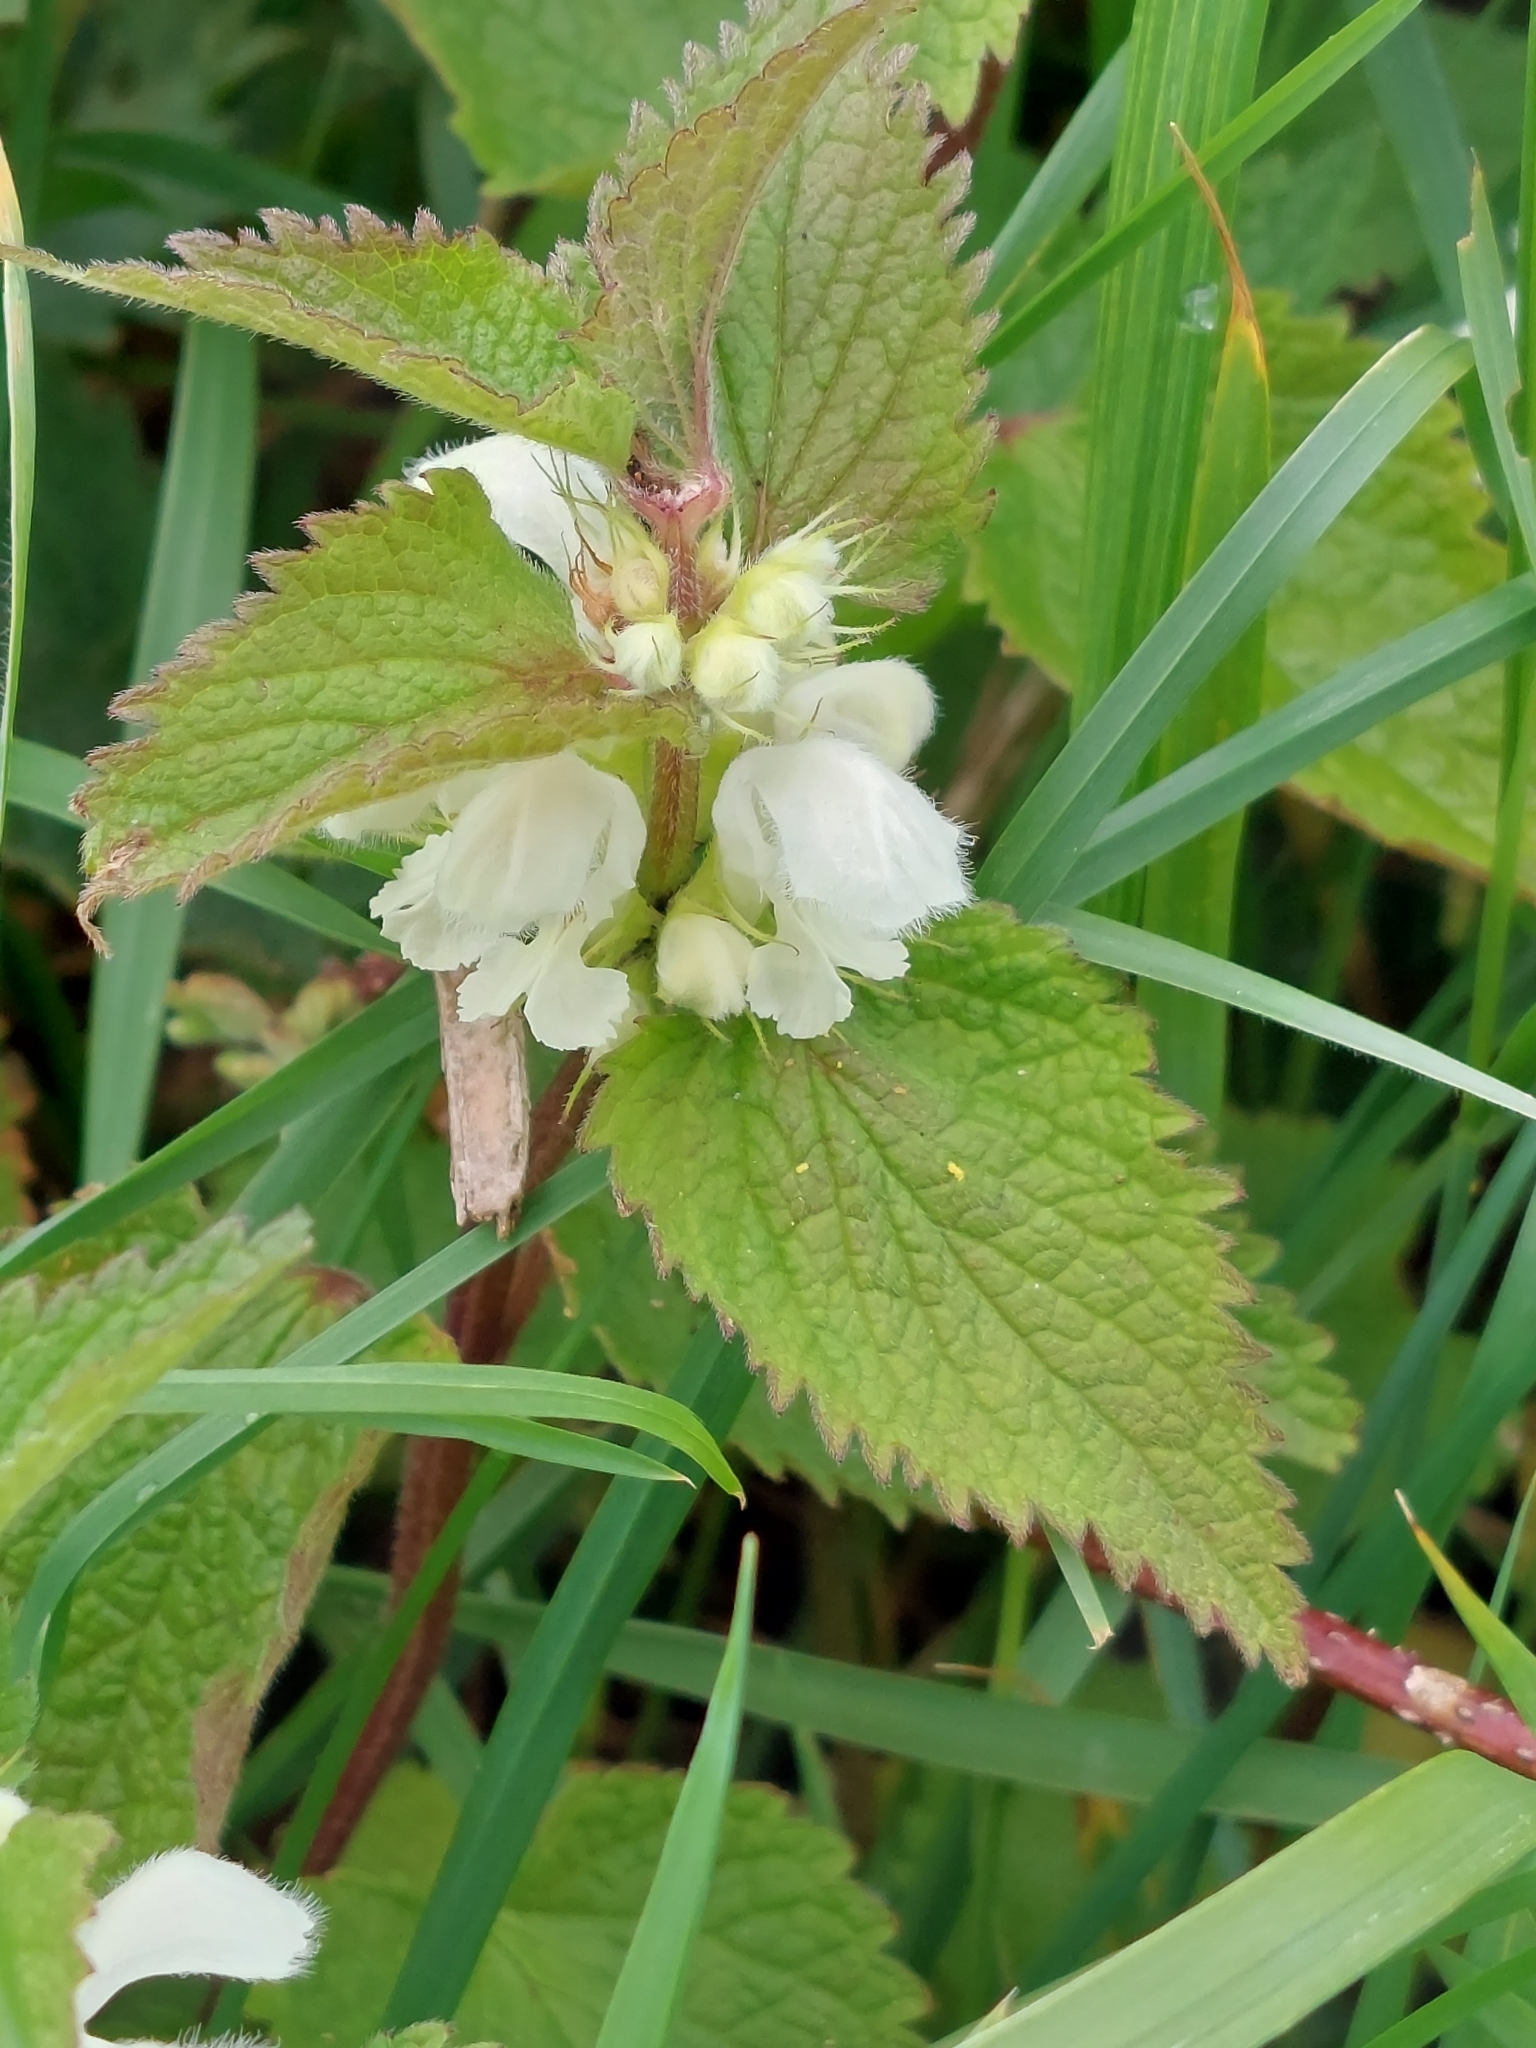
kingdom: Plantae
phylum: Tracheophyta
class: Magnoliopsida
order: Lamiales
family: Lamiaceae
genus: Lamium
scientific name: Lamium album
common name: White dead-nettle
